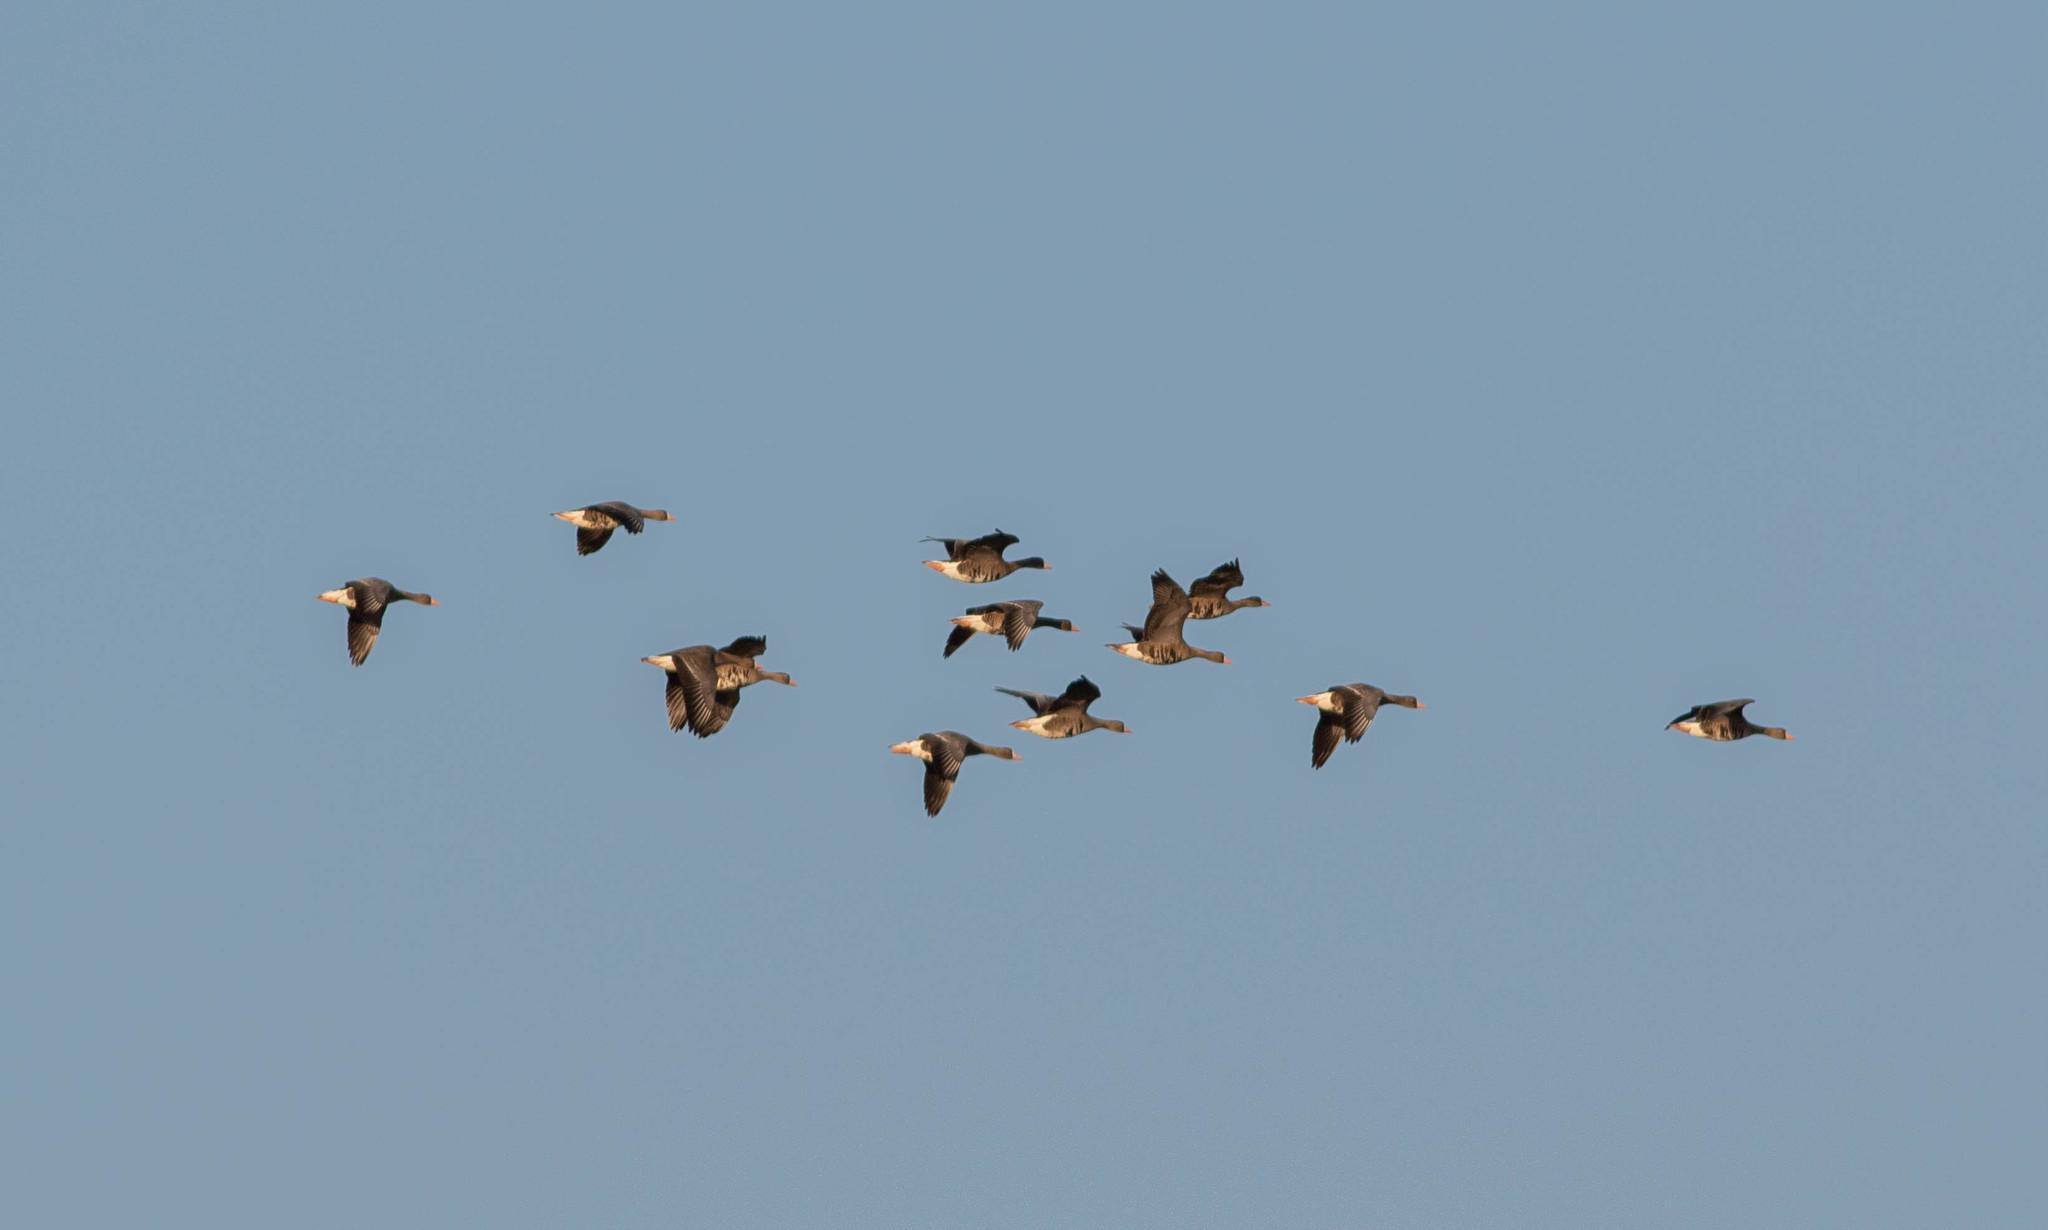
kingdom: Animalia
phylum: Chordata
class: Aves
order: Anseriformes
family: Anatidae
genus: Anser
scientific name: Anser albifrons
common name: Greater white-fronted goose
